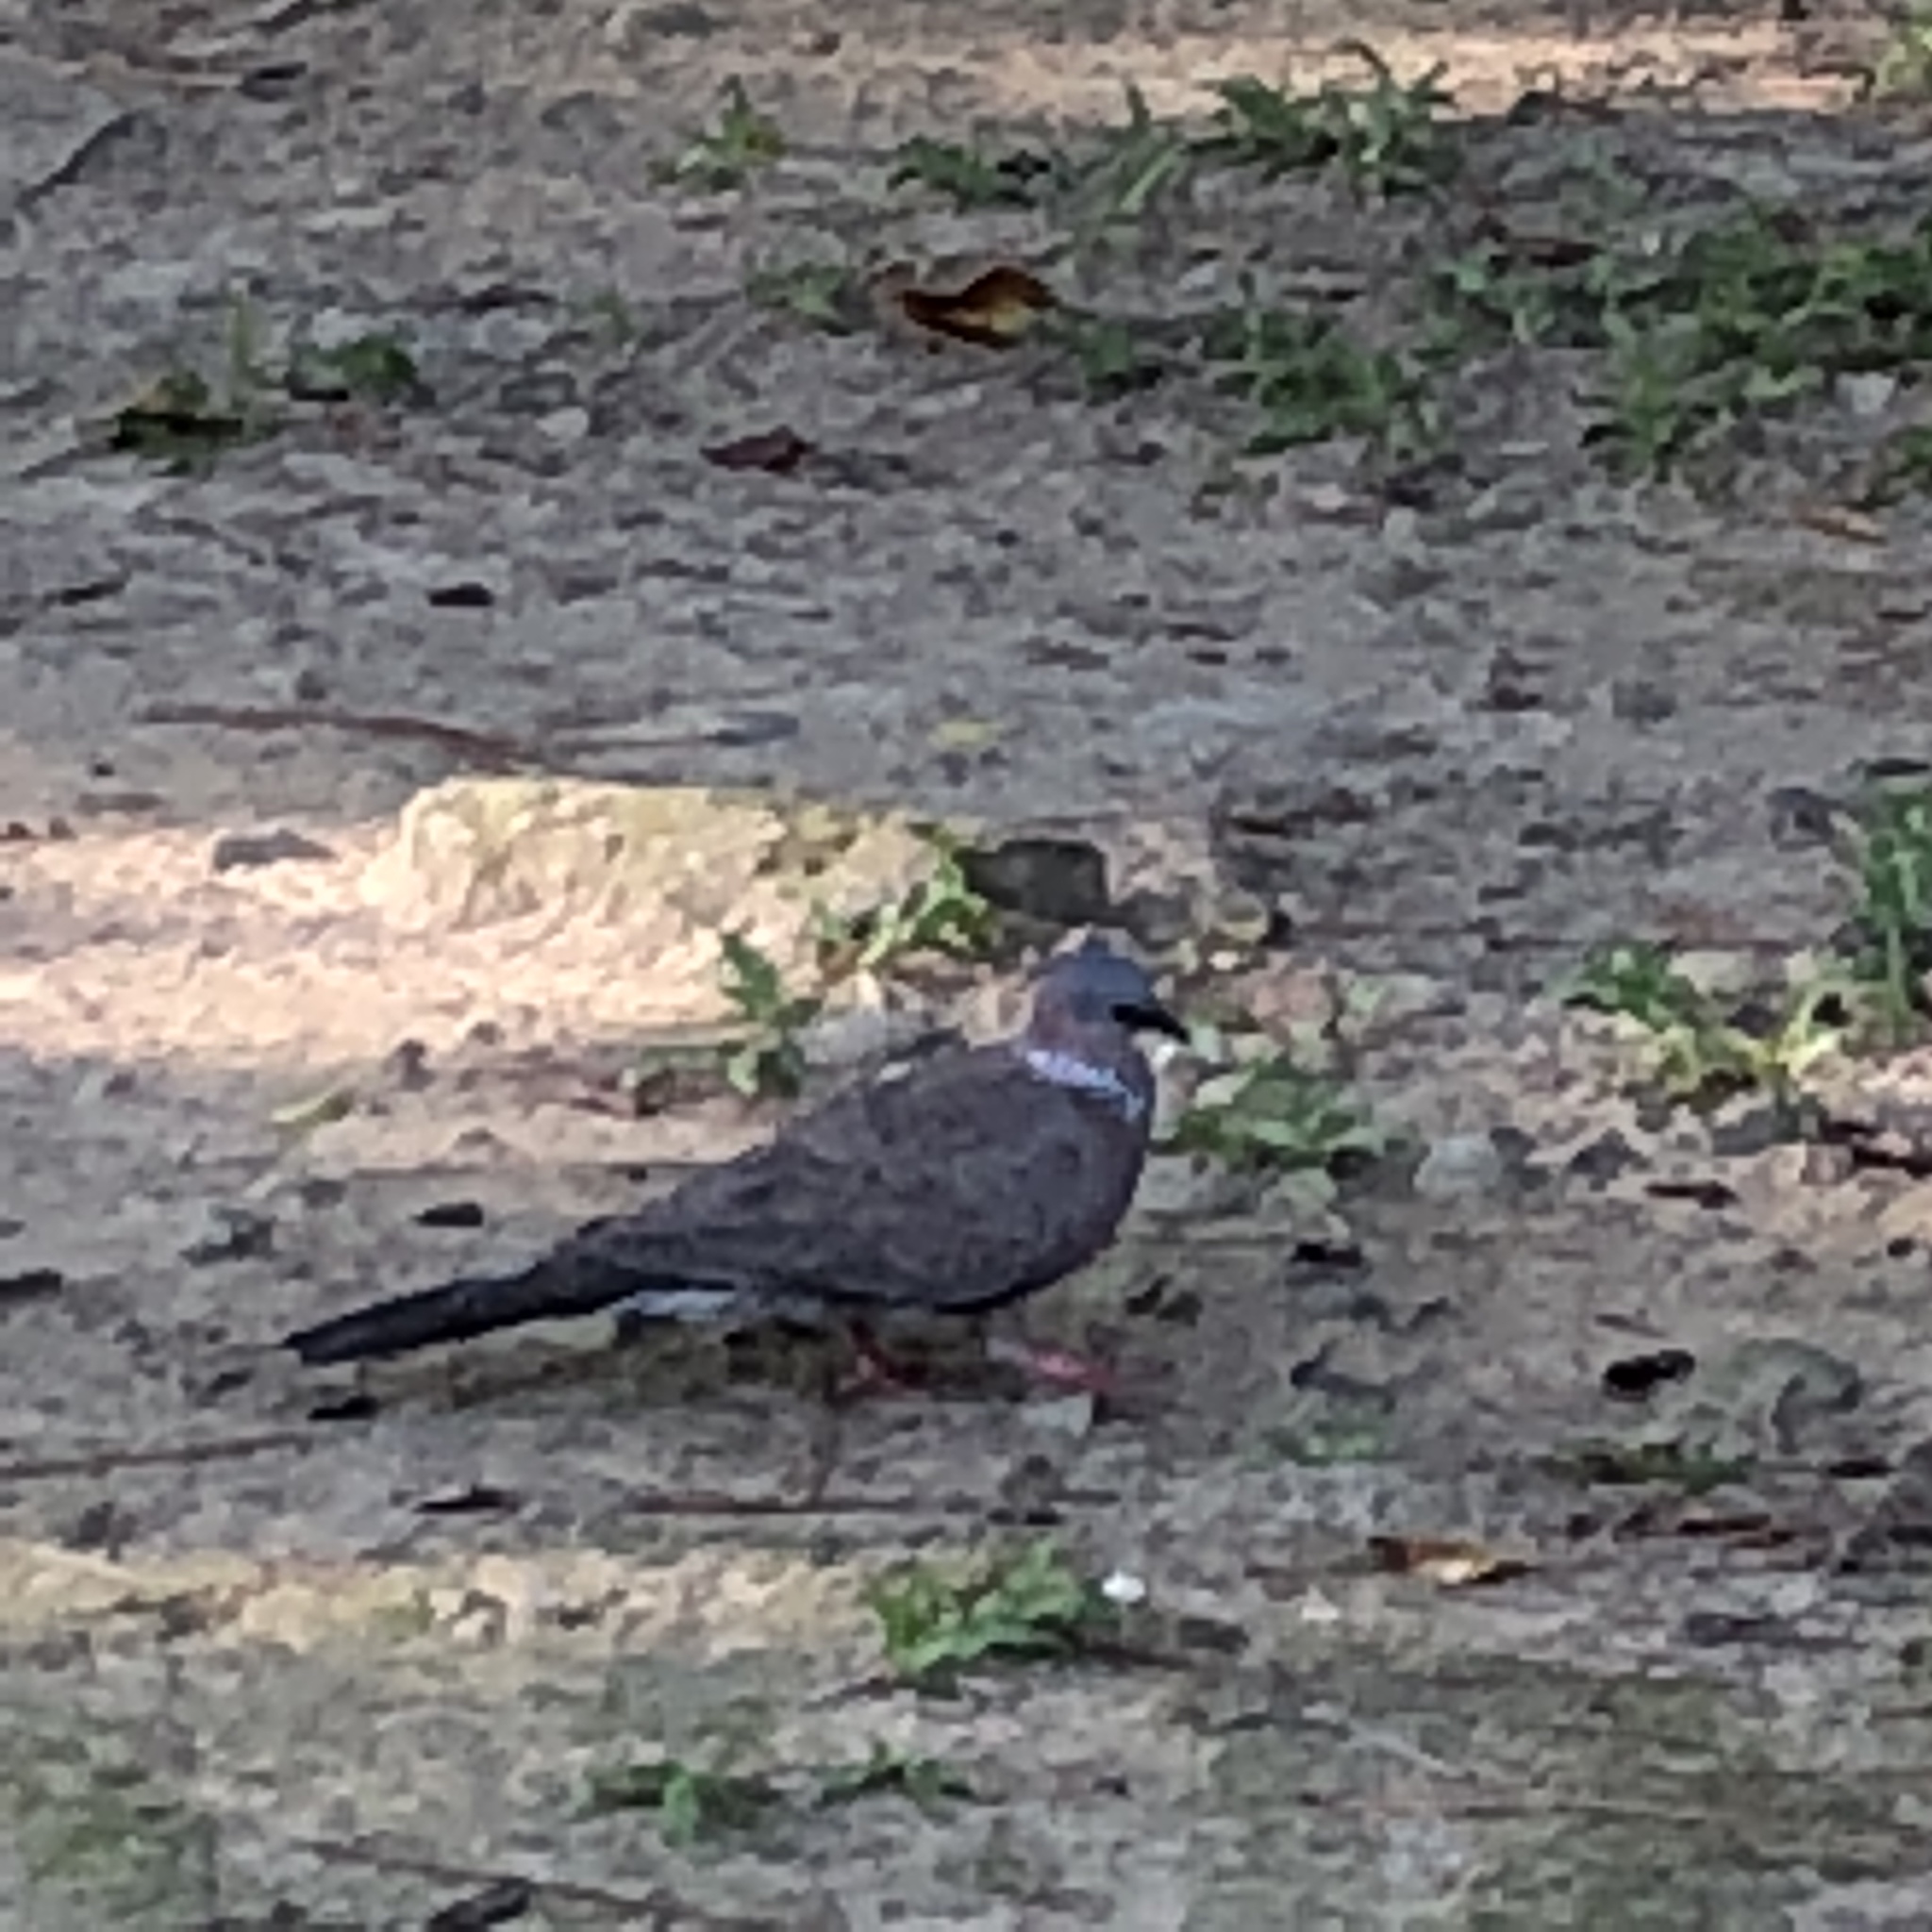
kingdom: Animalia
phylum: Chordata
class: Aves
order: Columbiformes
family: Columbidae
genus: Spilopelia
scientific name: Spilopelia chinensis
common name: Spotted dove
